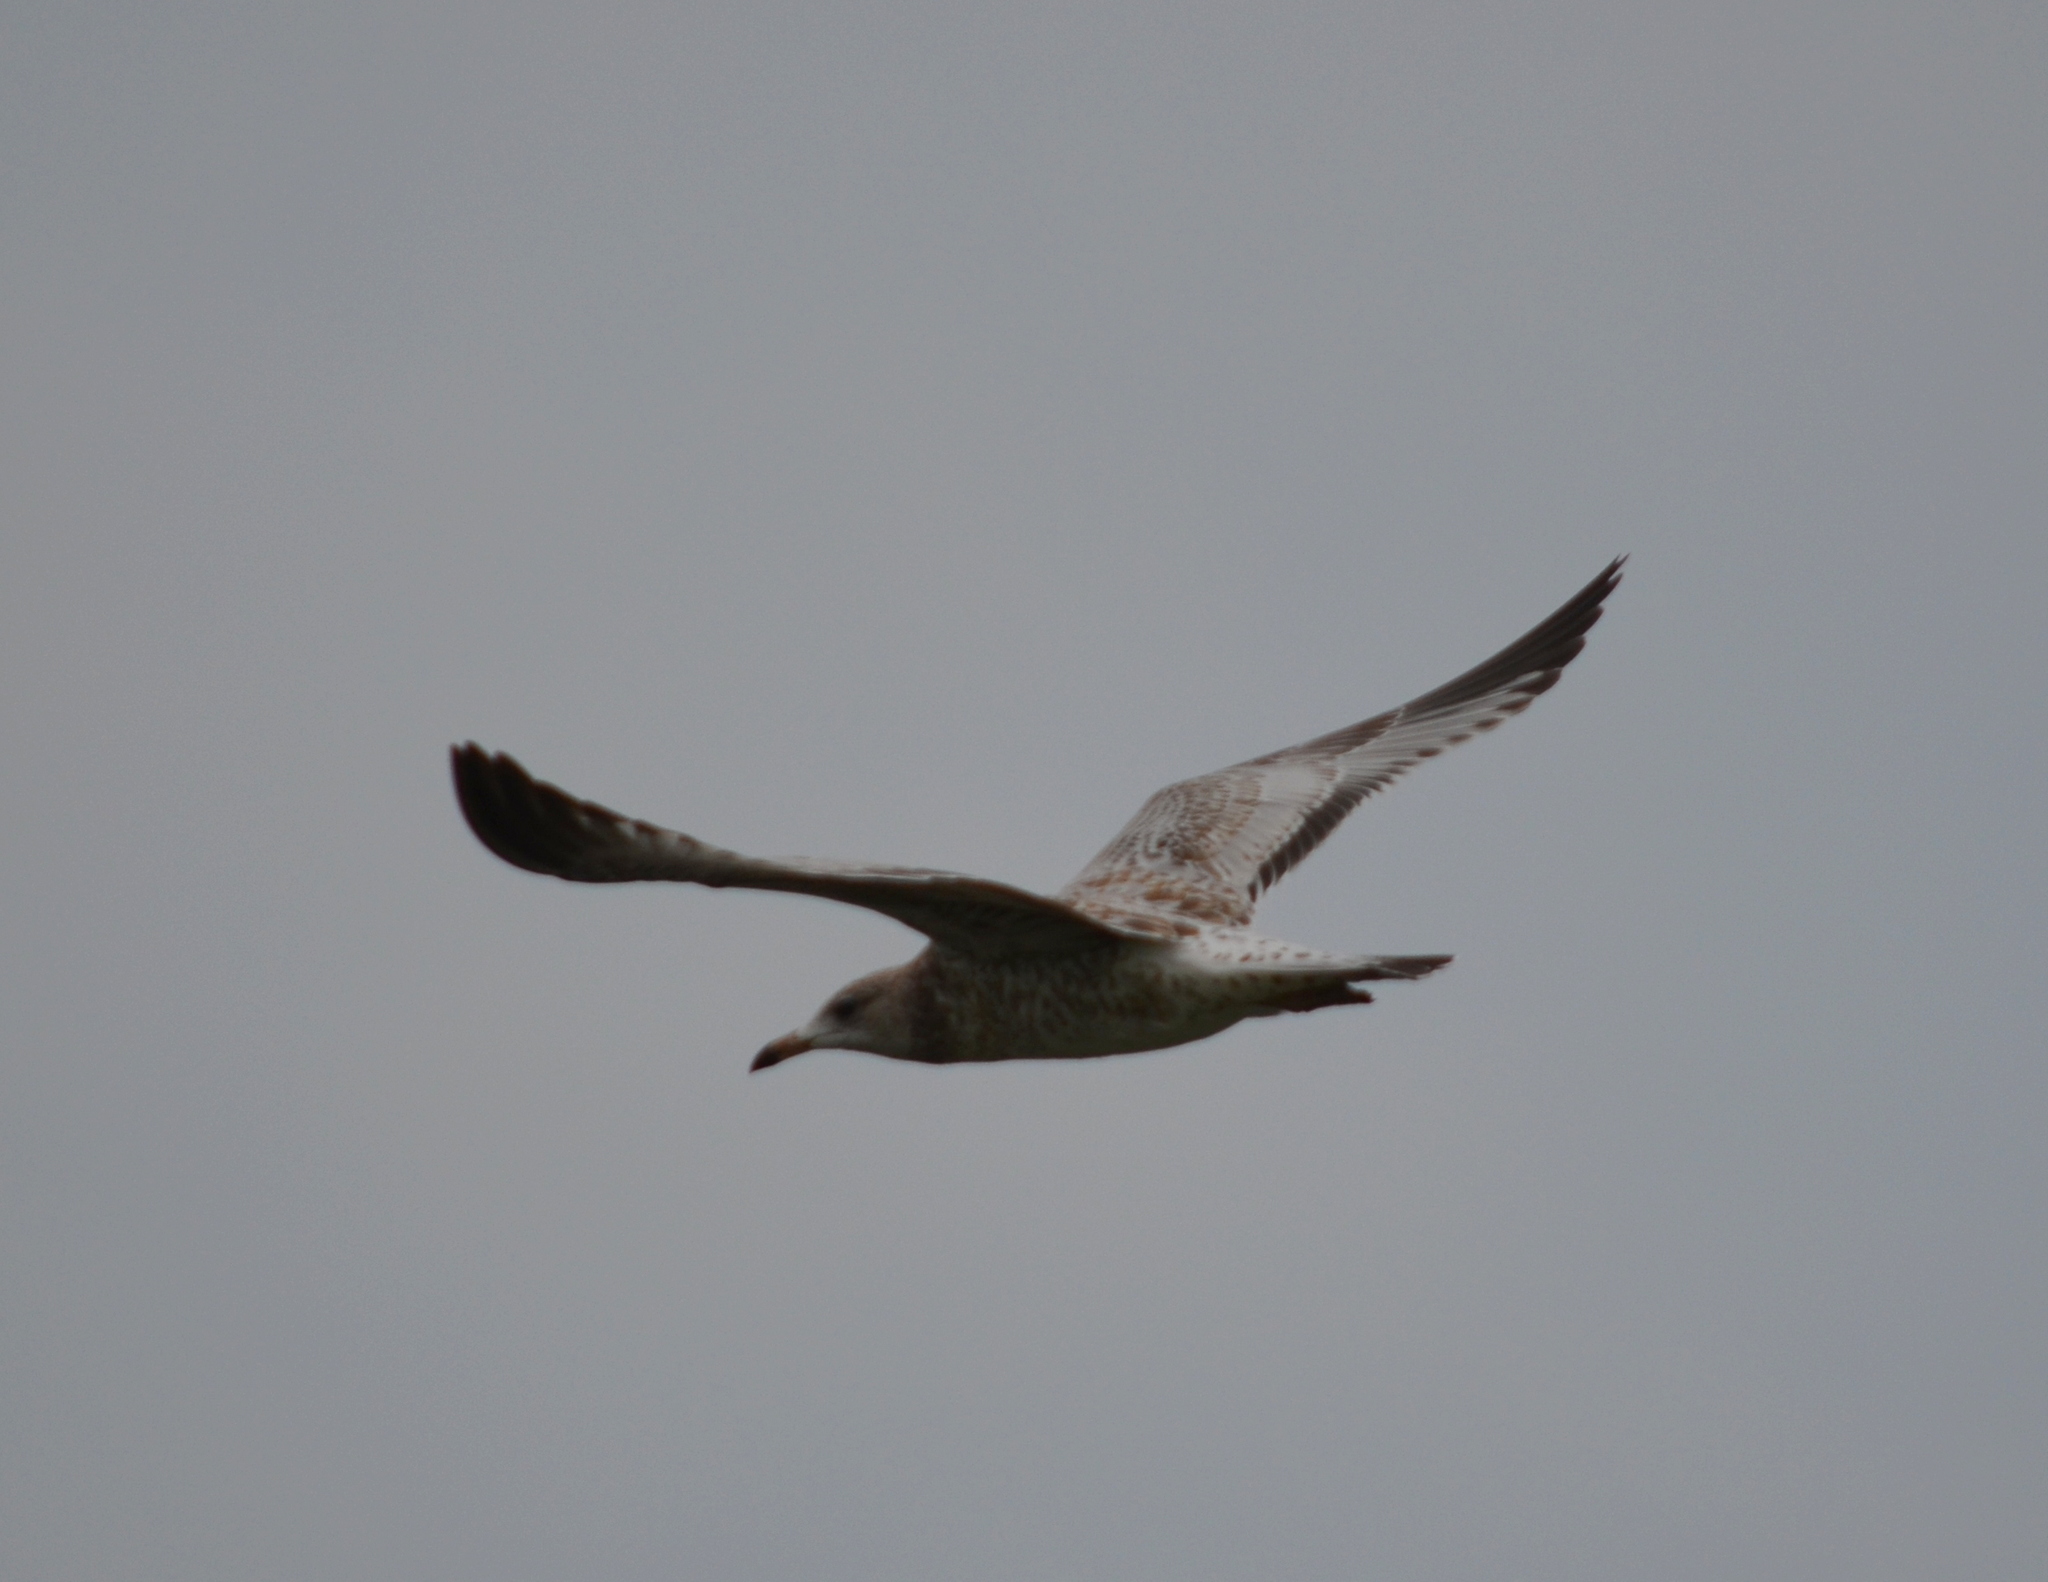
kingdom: Animalia
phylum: Chordata
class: Aves
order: Charadriiformes
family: Laridae
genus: Larus
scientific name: Larus delawarensis
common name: Ring-billed gull
